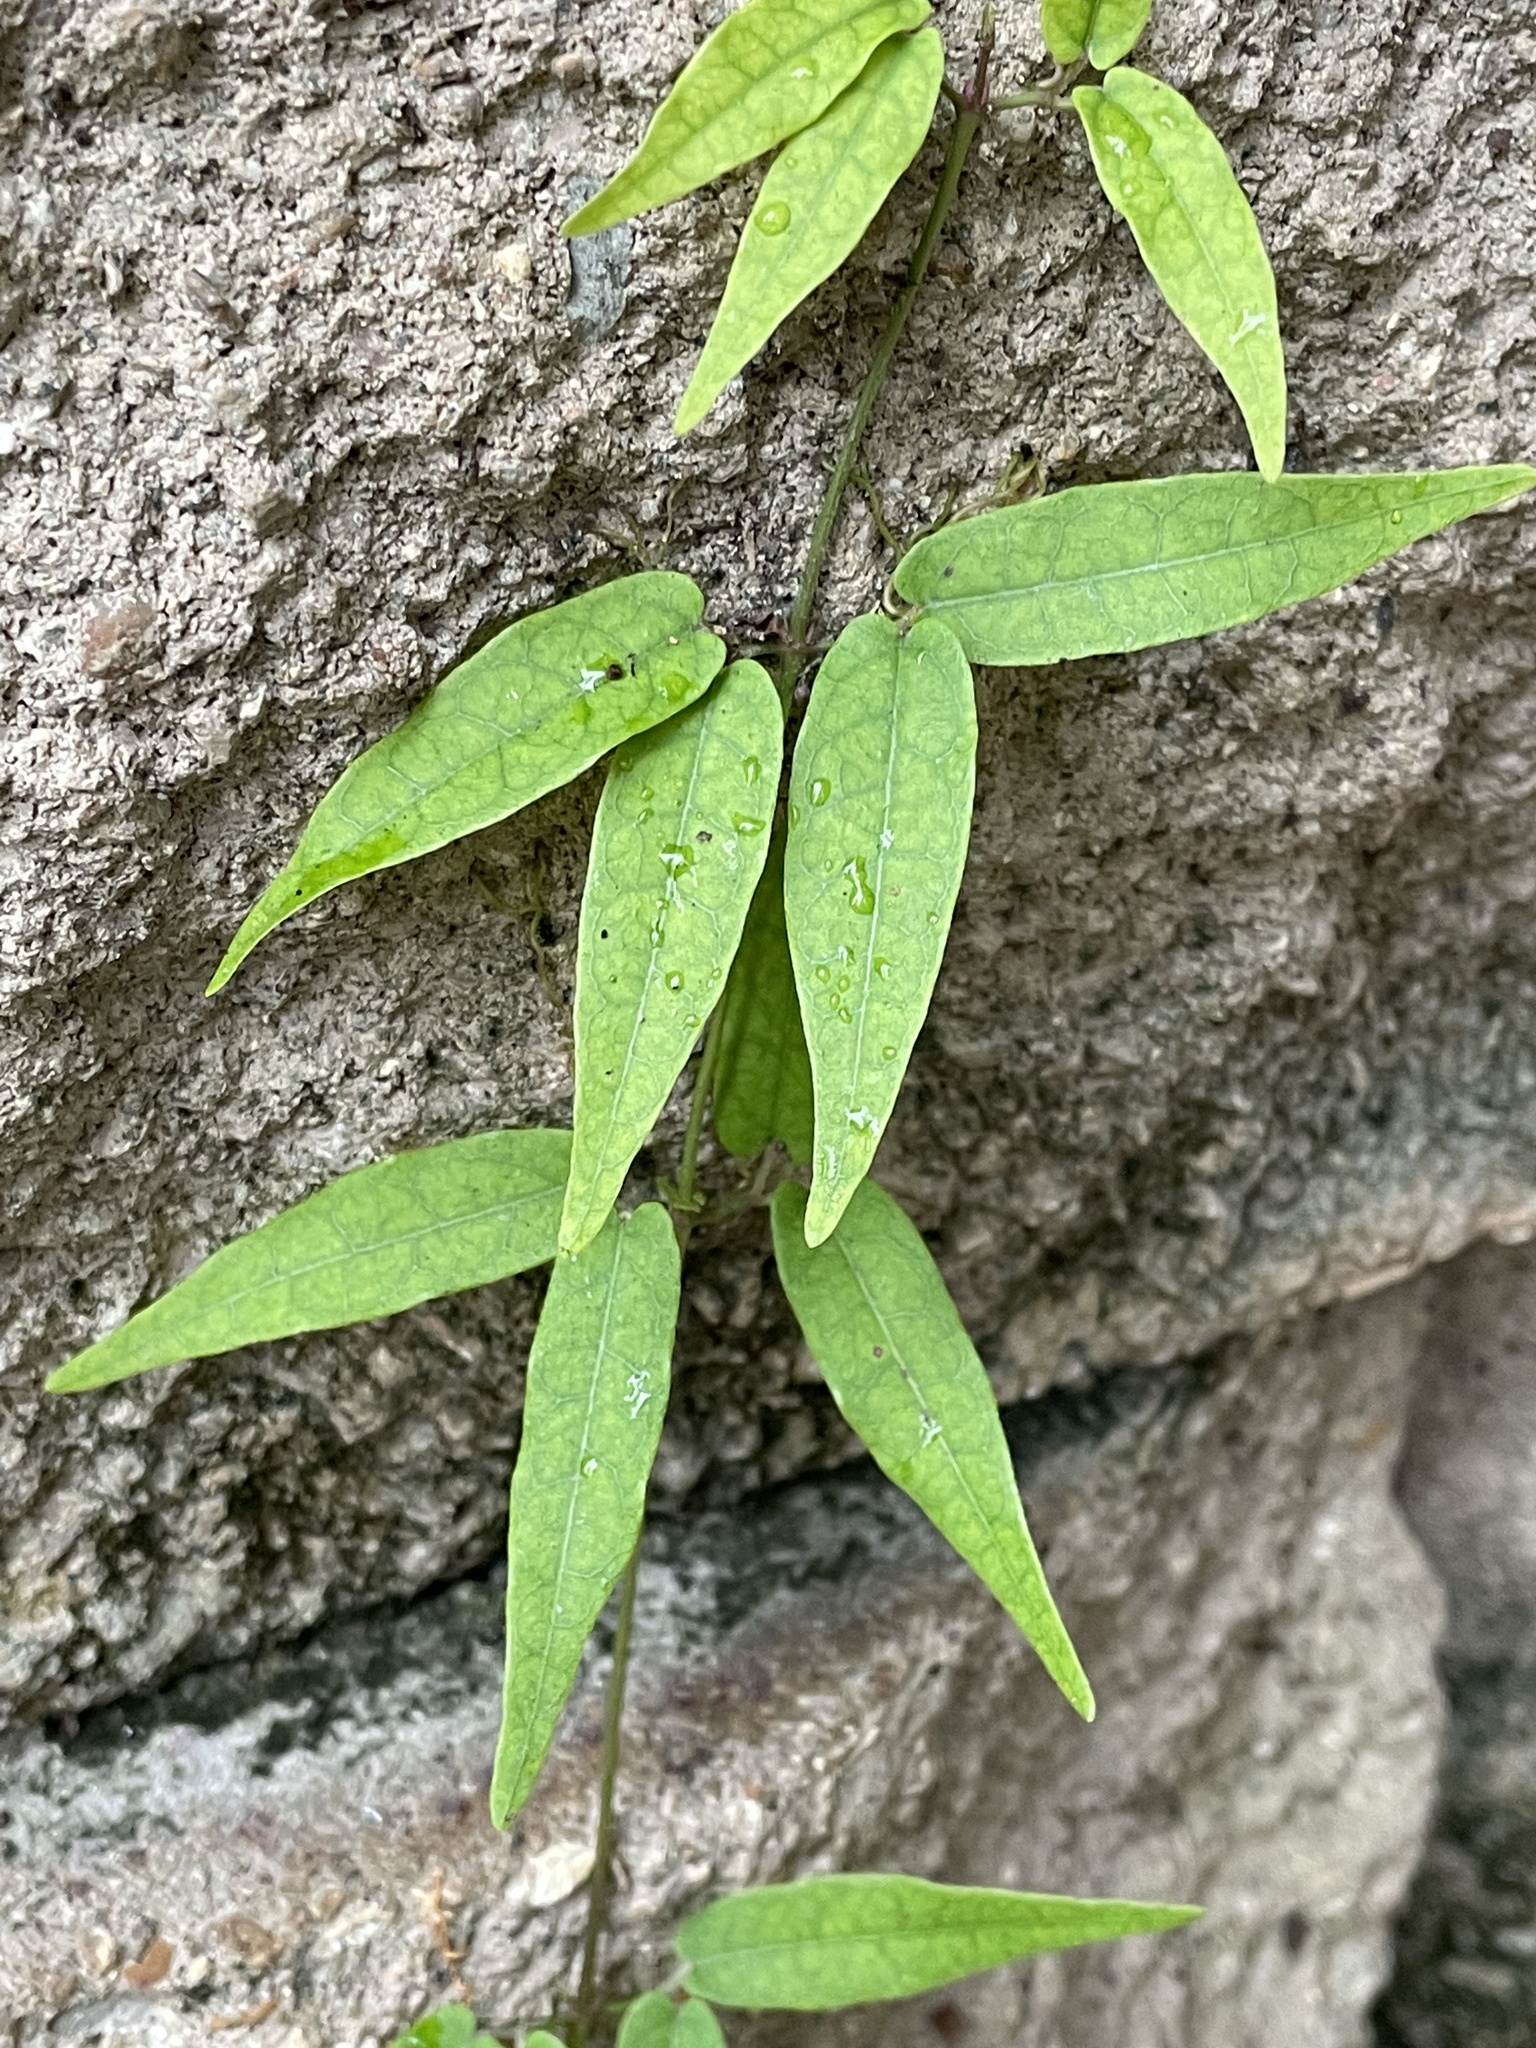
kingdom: Plantae
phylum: Tracheophyta
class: Magnoliopsida
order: Lamiales
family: Bignoniaceae
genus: Bignonia
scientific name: Bignonia capreolata
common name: Crossvine
